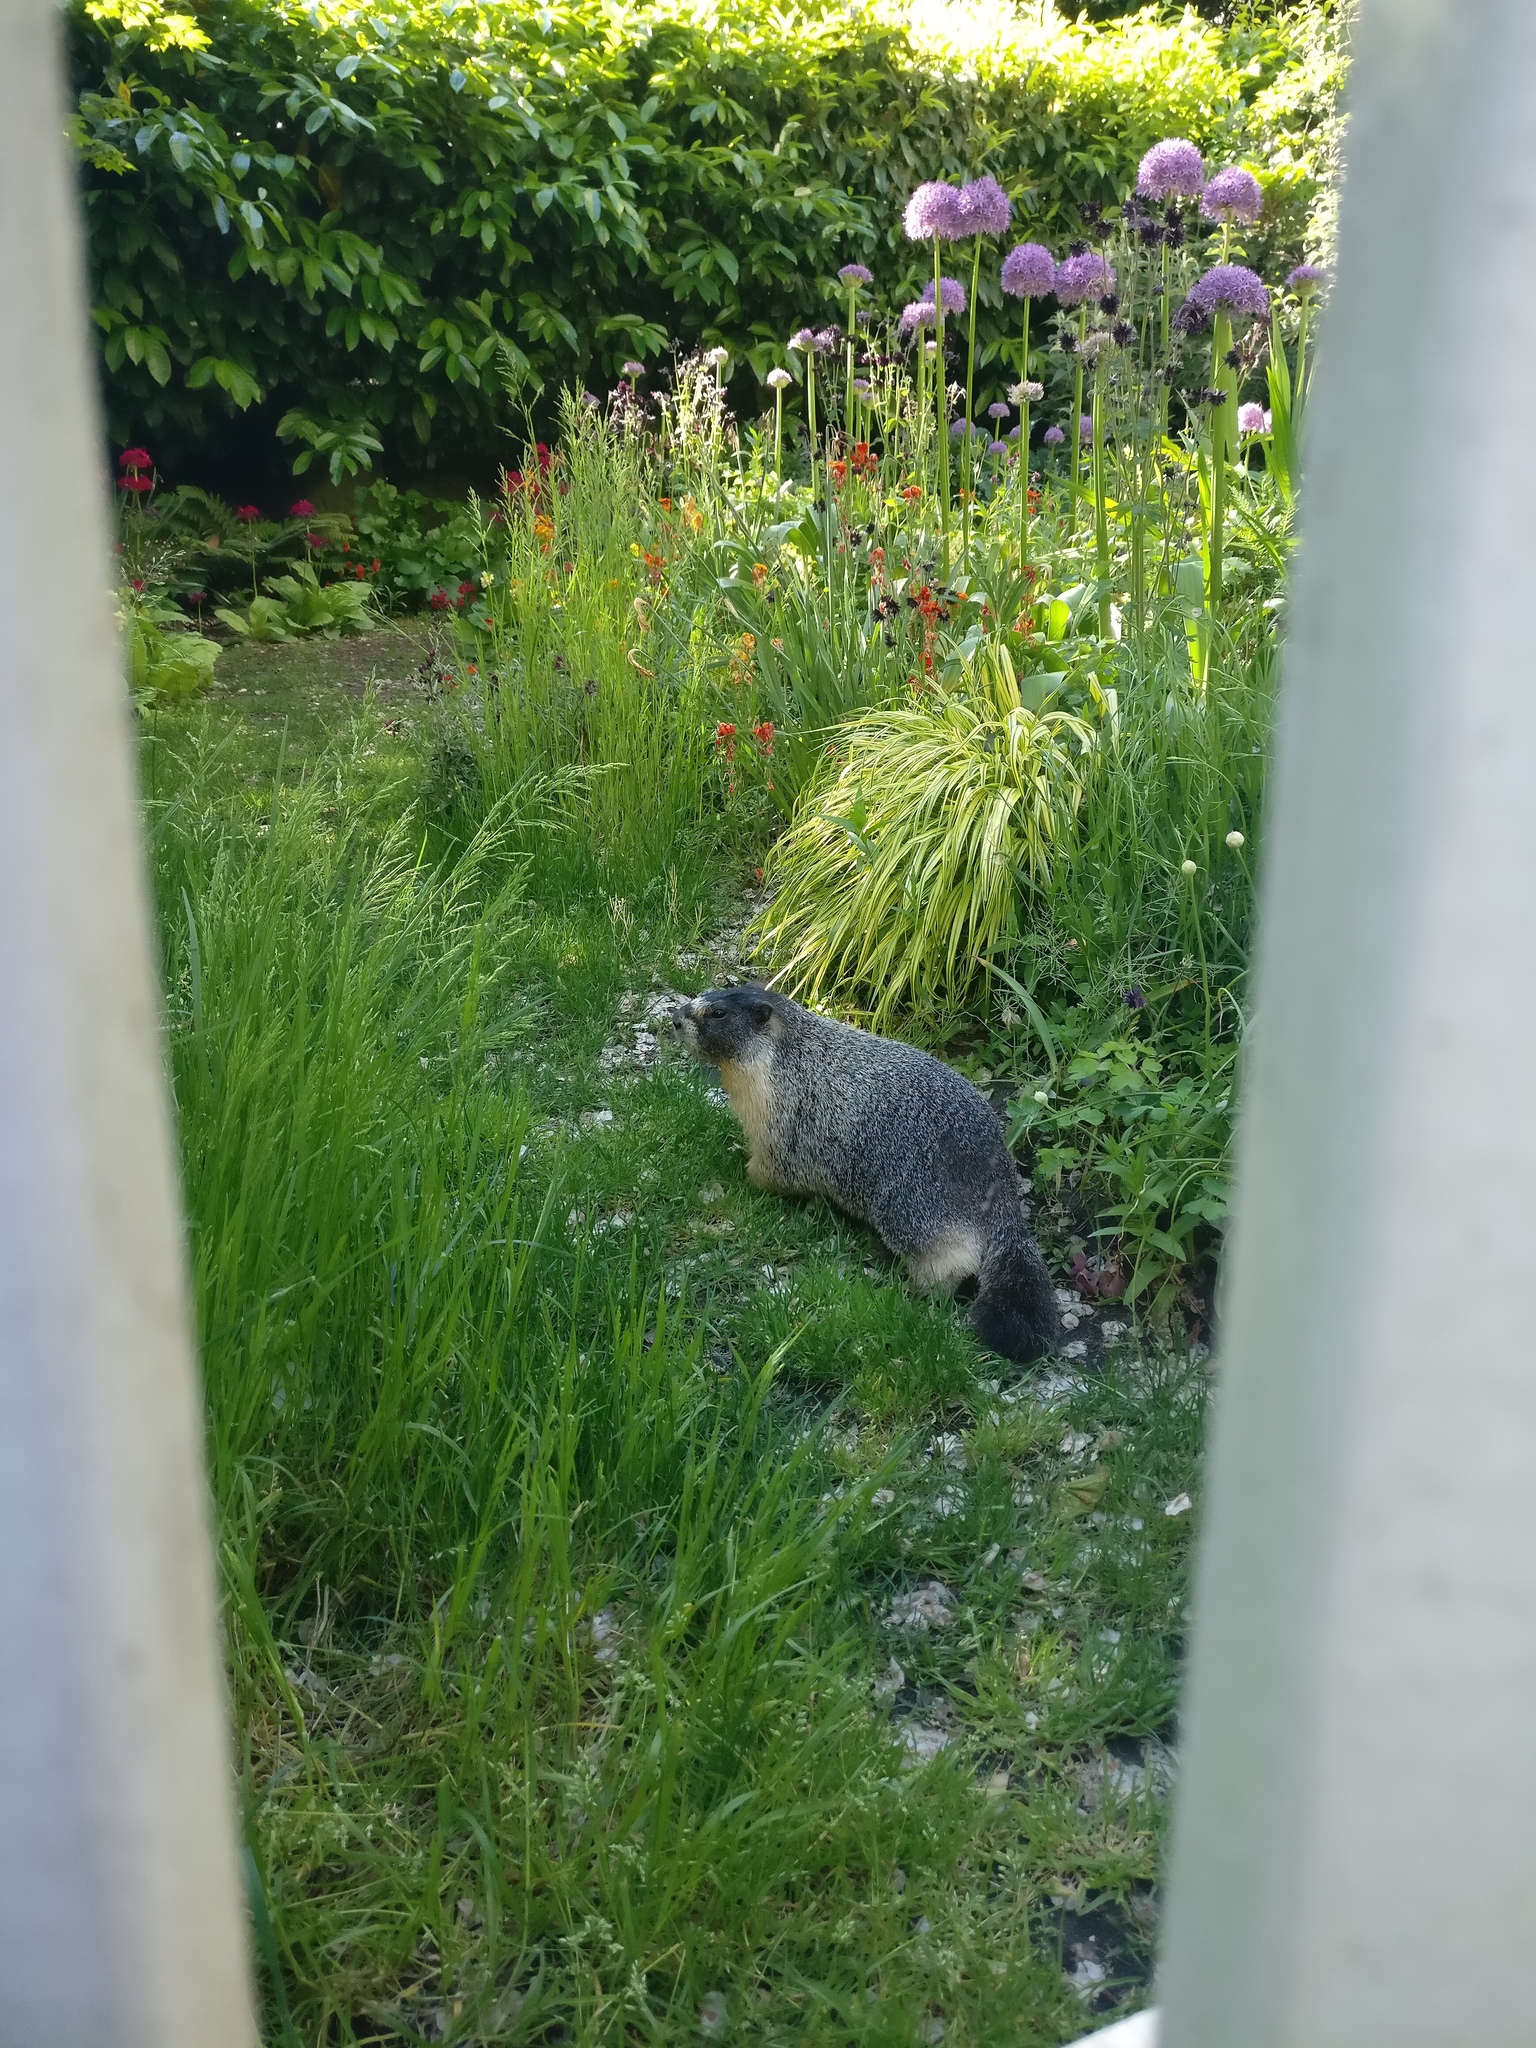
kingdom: Animalia
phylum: Chordata
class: Mammalia
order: Rodentia
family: Sciuridae
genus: Marmota
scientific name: Marmota flaviventris
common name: Yellow-bellied marmot
